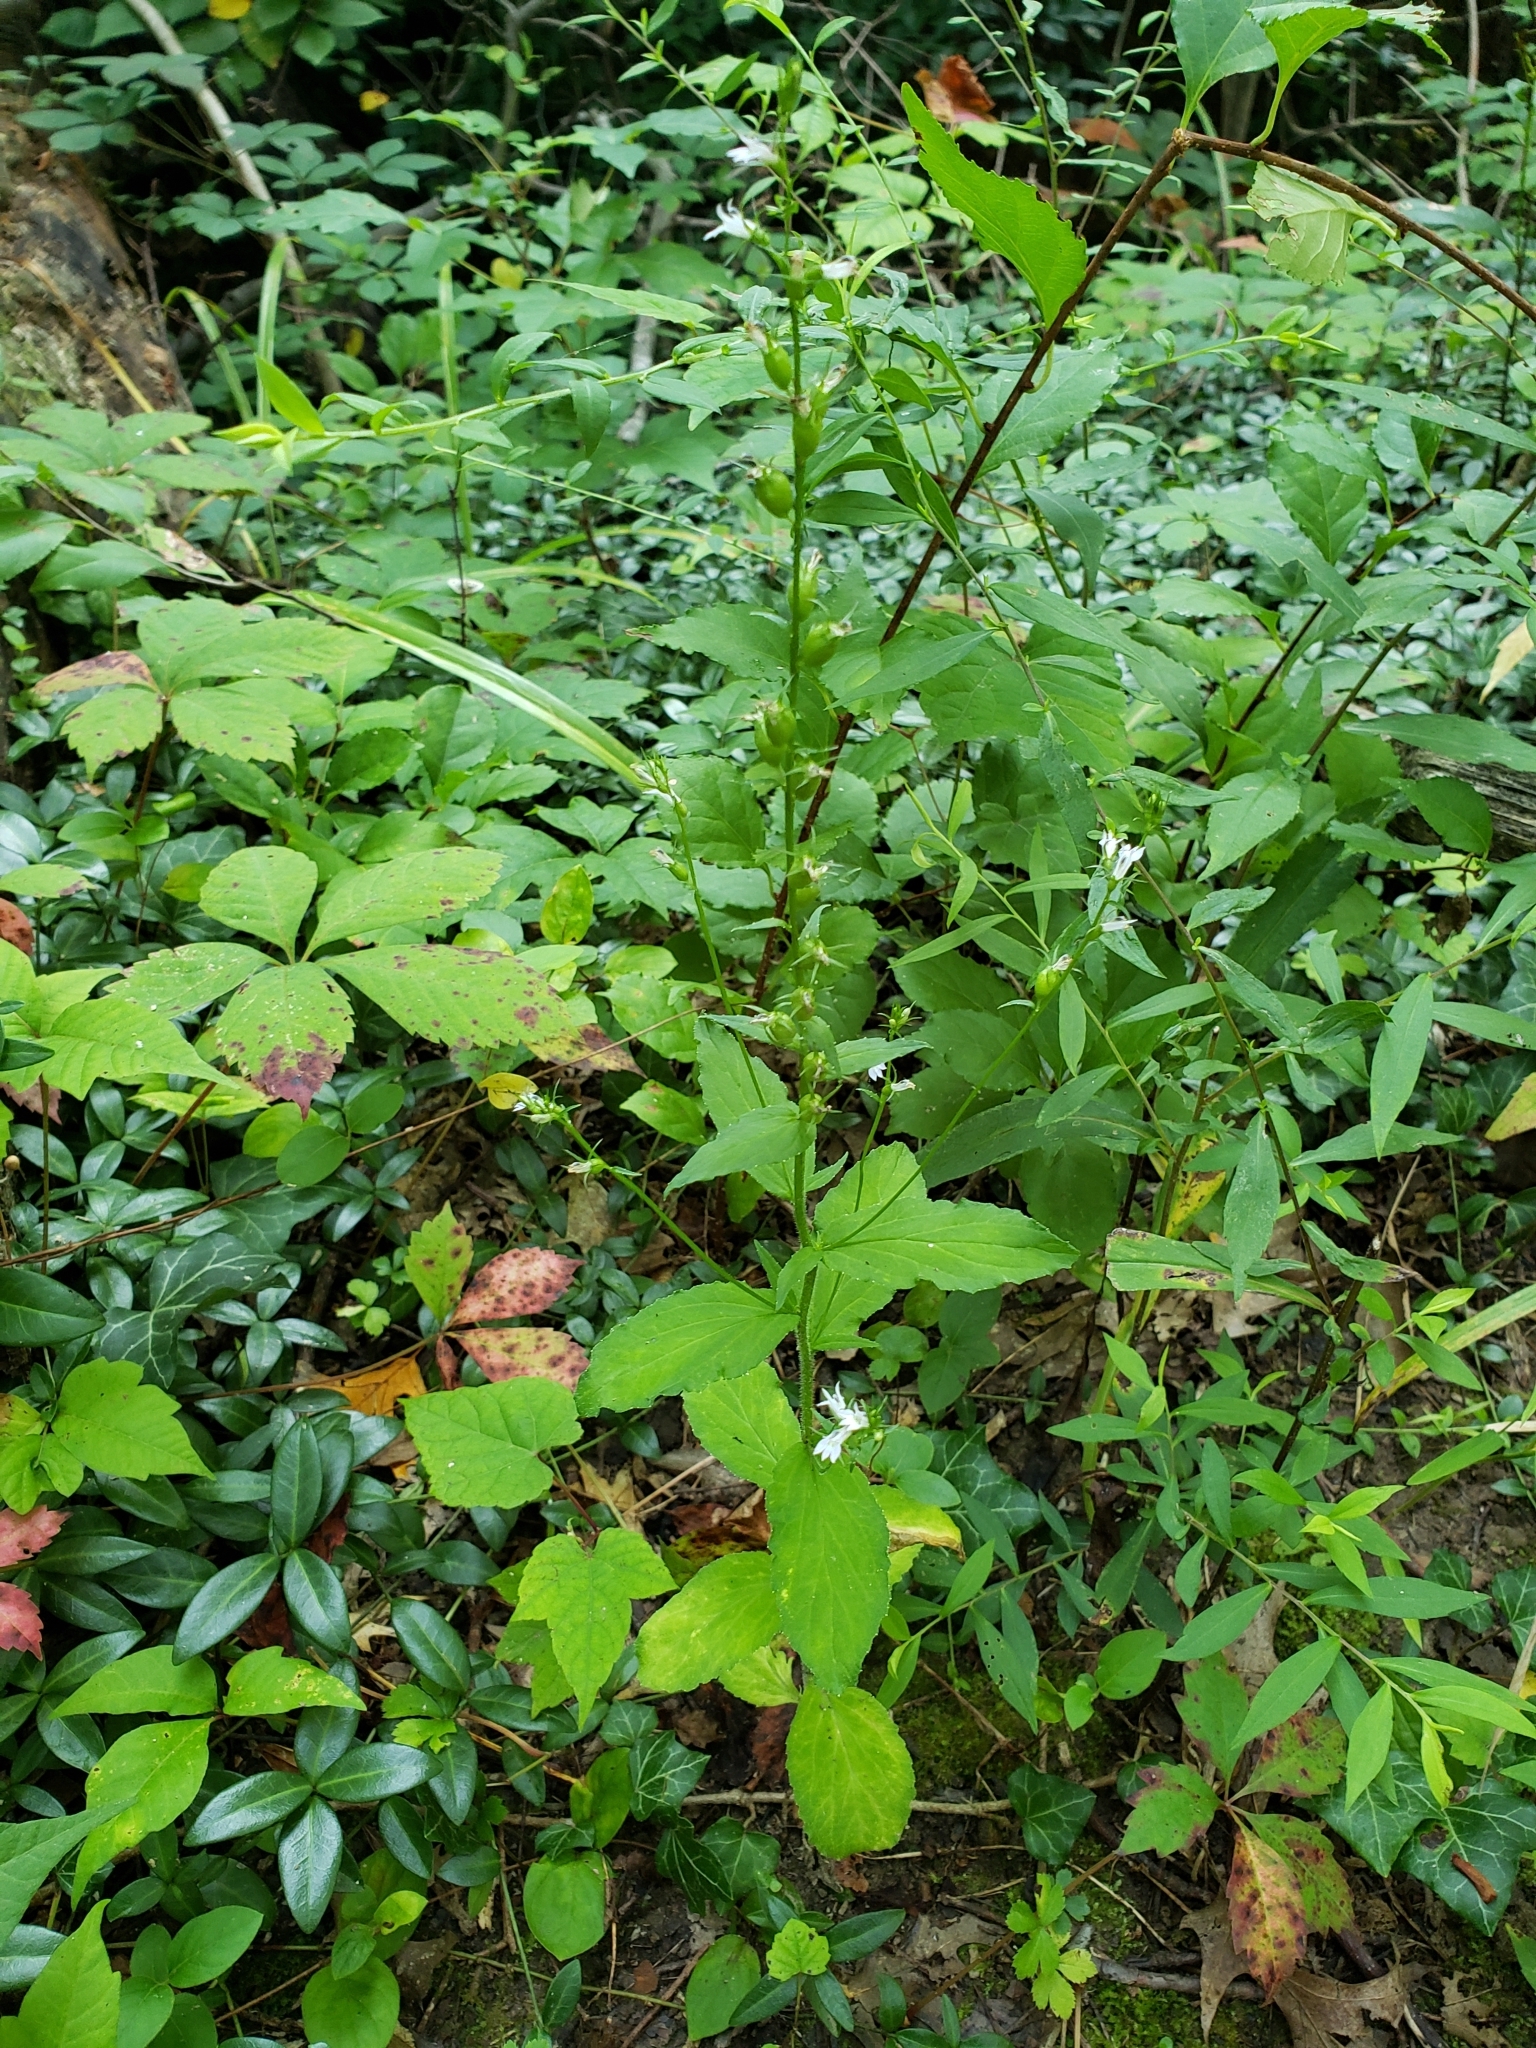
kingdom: Plantae
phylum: Tracheophyta
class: Magnoliopsida
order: Asterales
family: Campanulaceae
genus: Lobelia
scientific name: Lobelia inflata
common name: Indian tobacco
